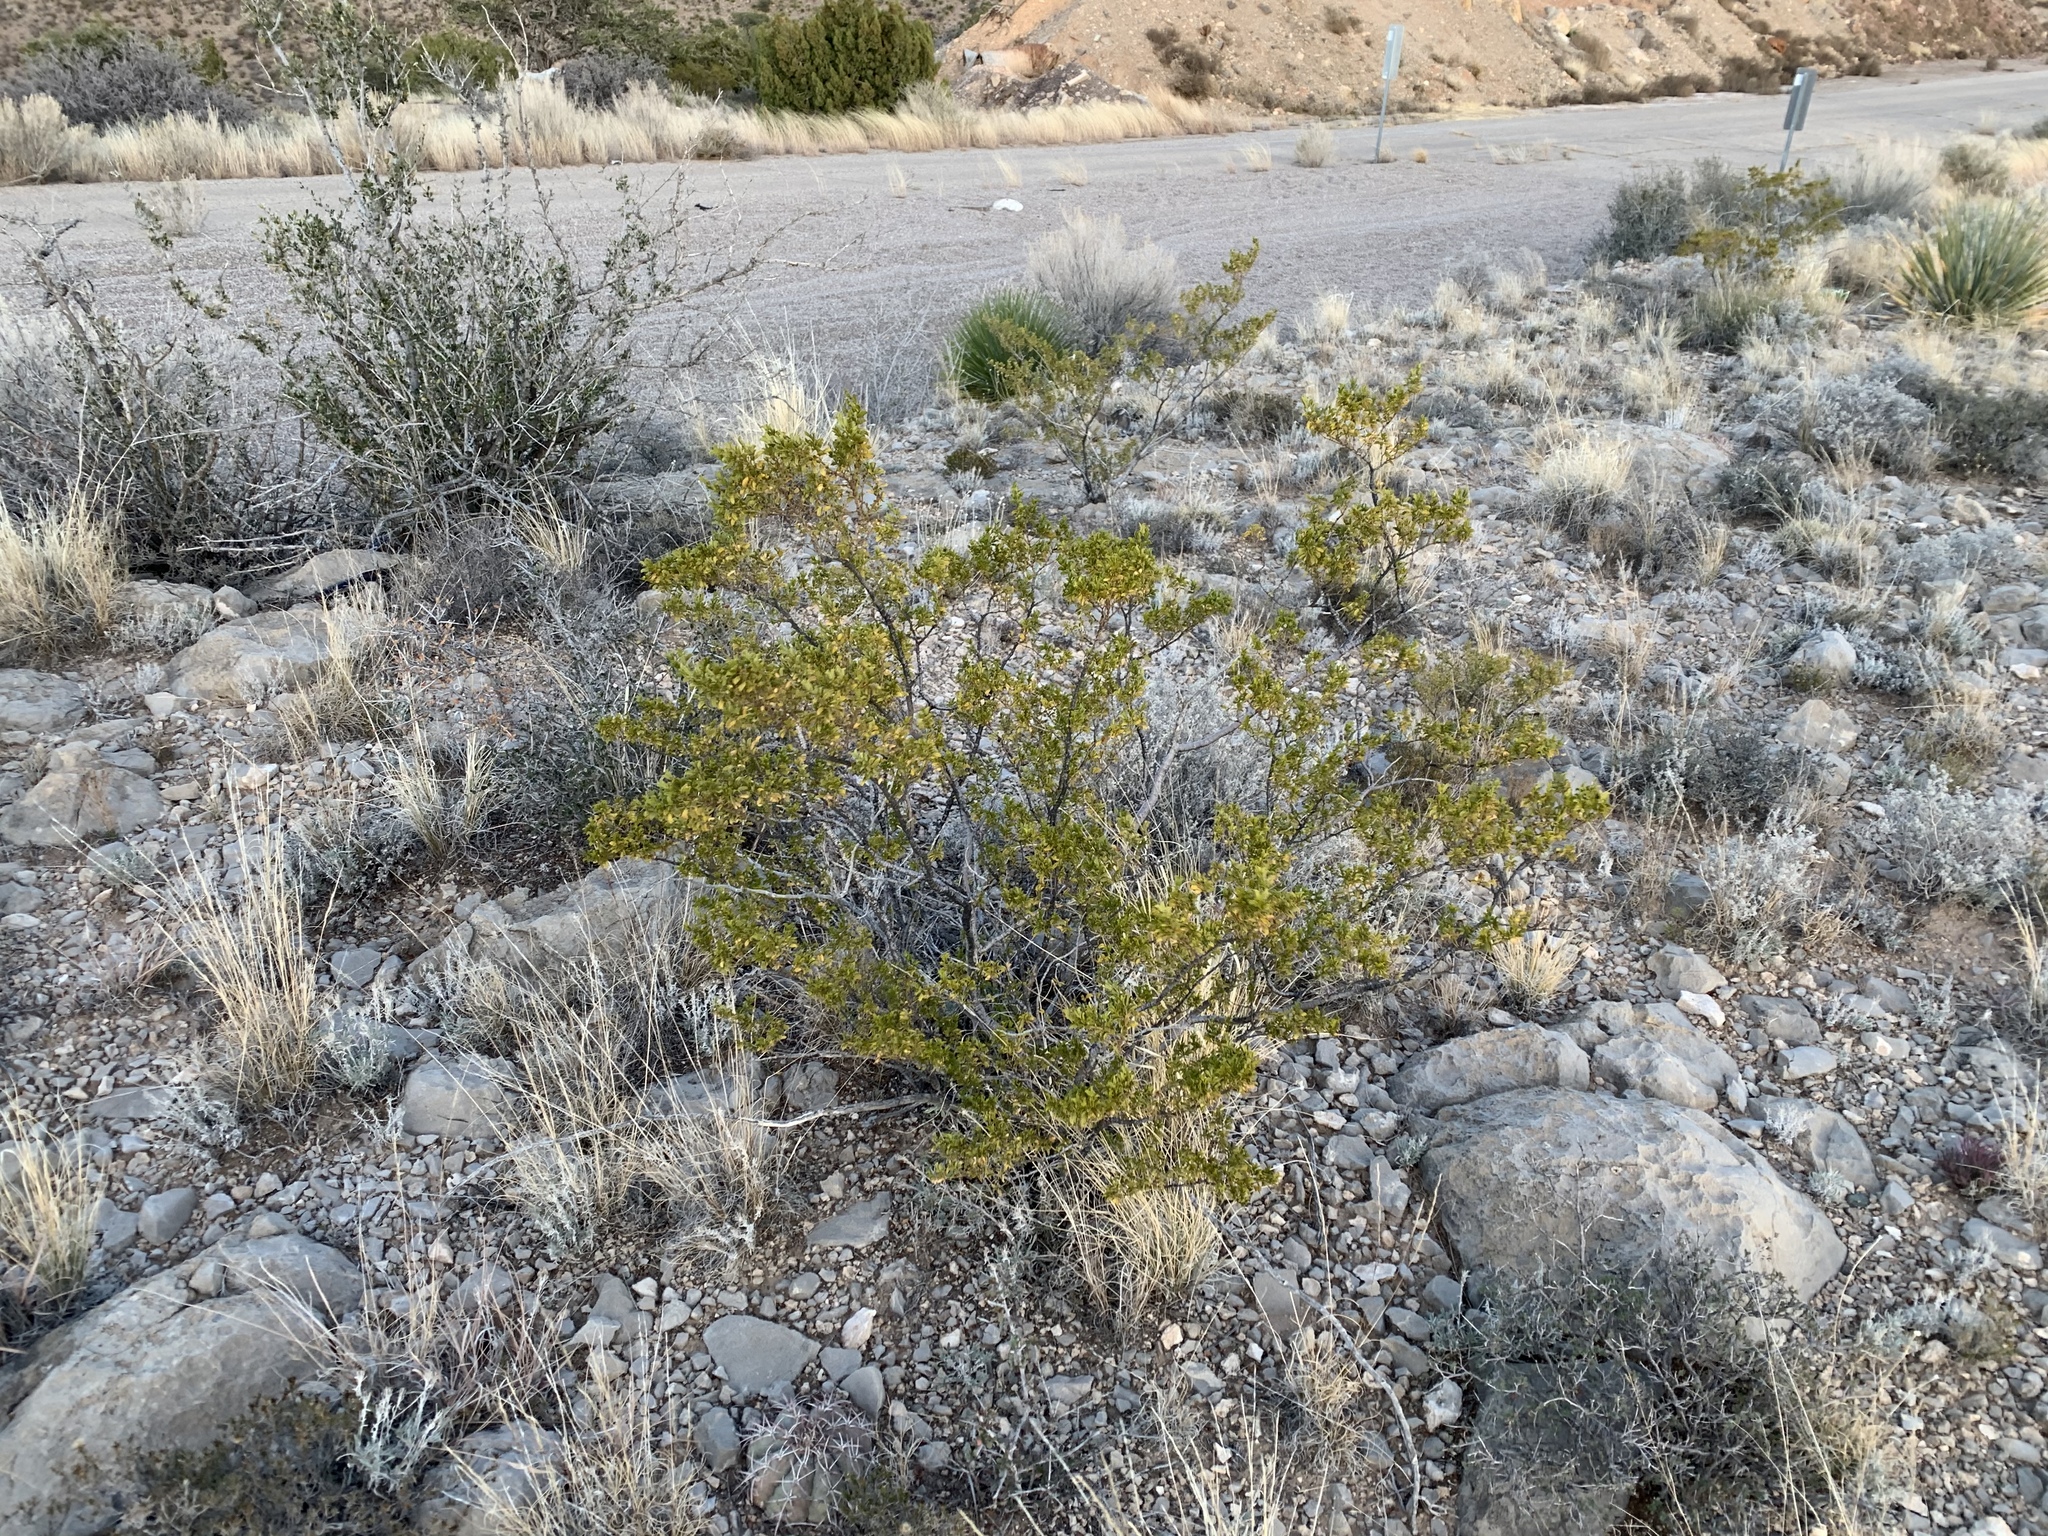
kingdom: Plantae
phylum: Tracheophyta
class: Magnoliopsida
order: Zygophyllales
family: Zygophyllaceae
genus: Larrea
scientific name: Larrea tridentata
